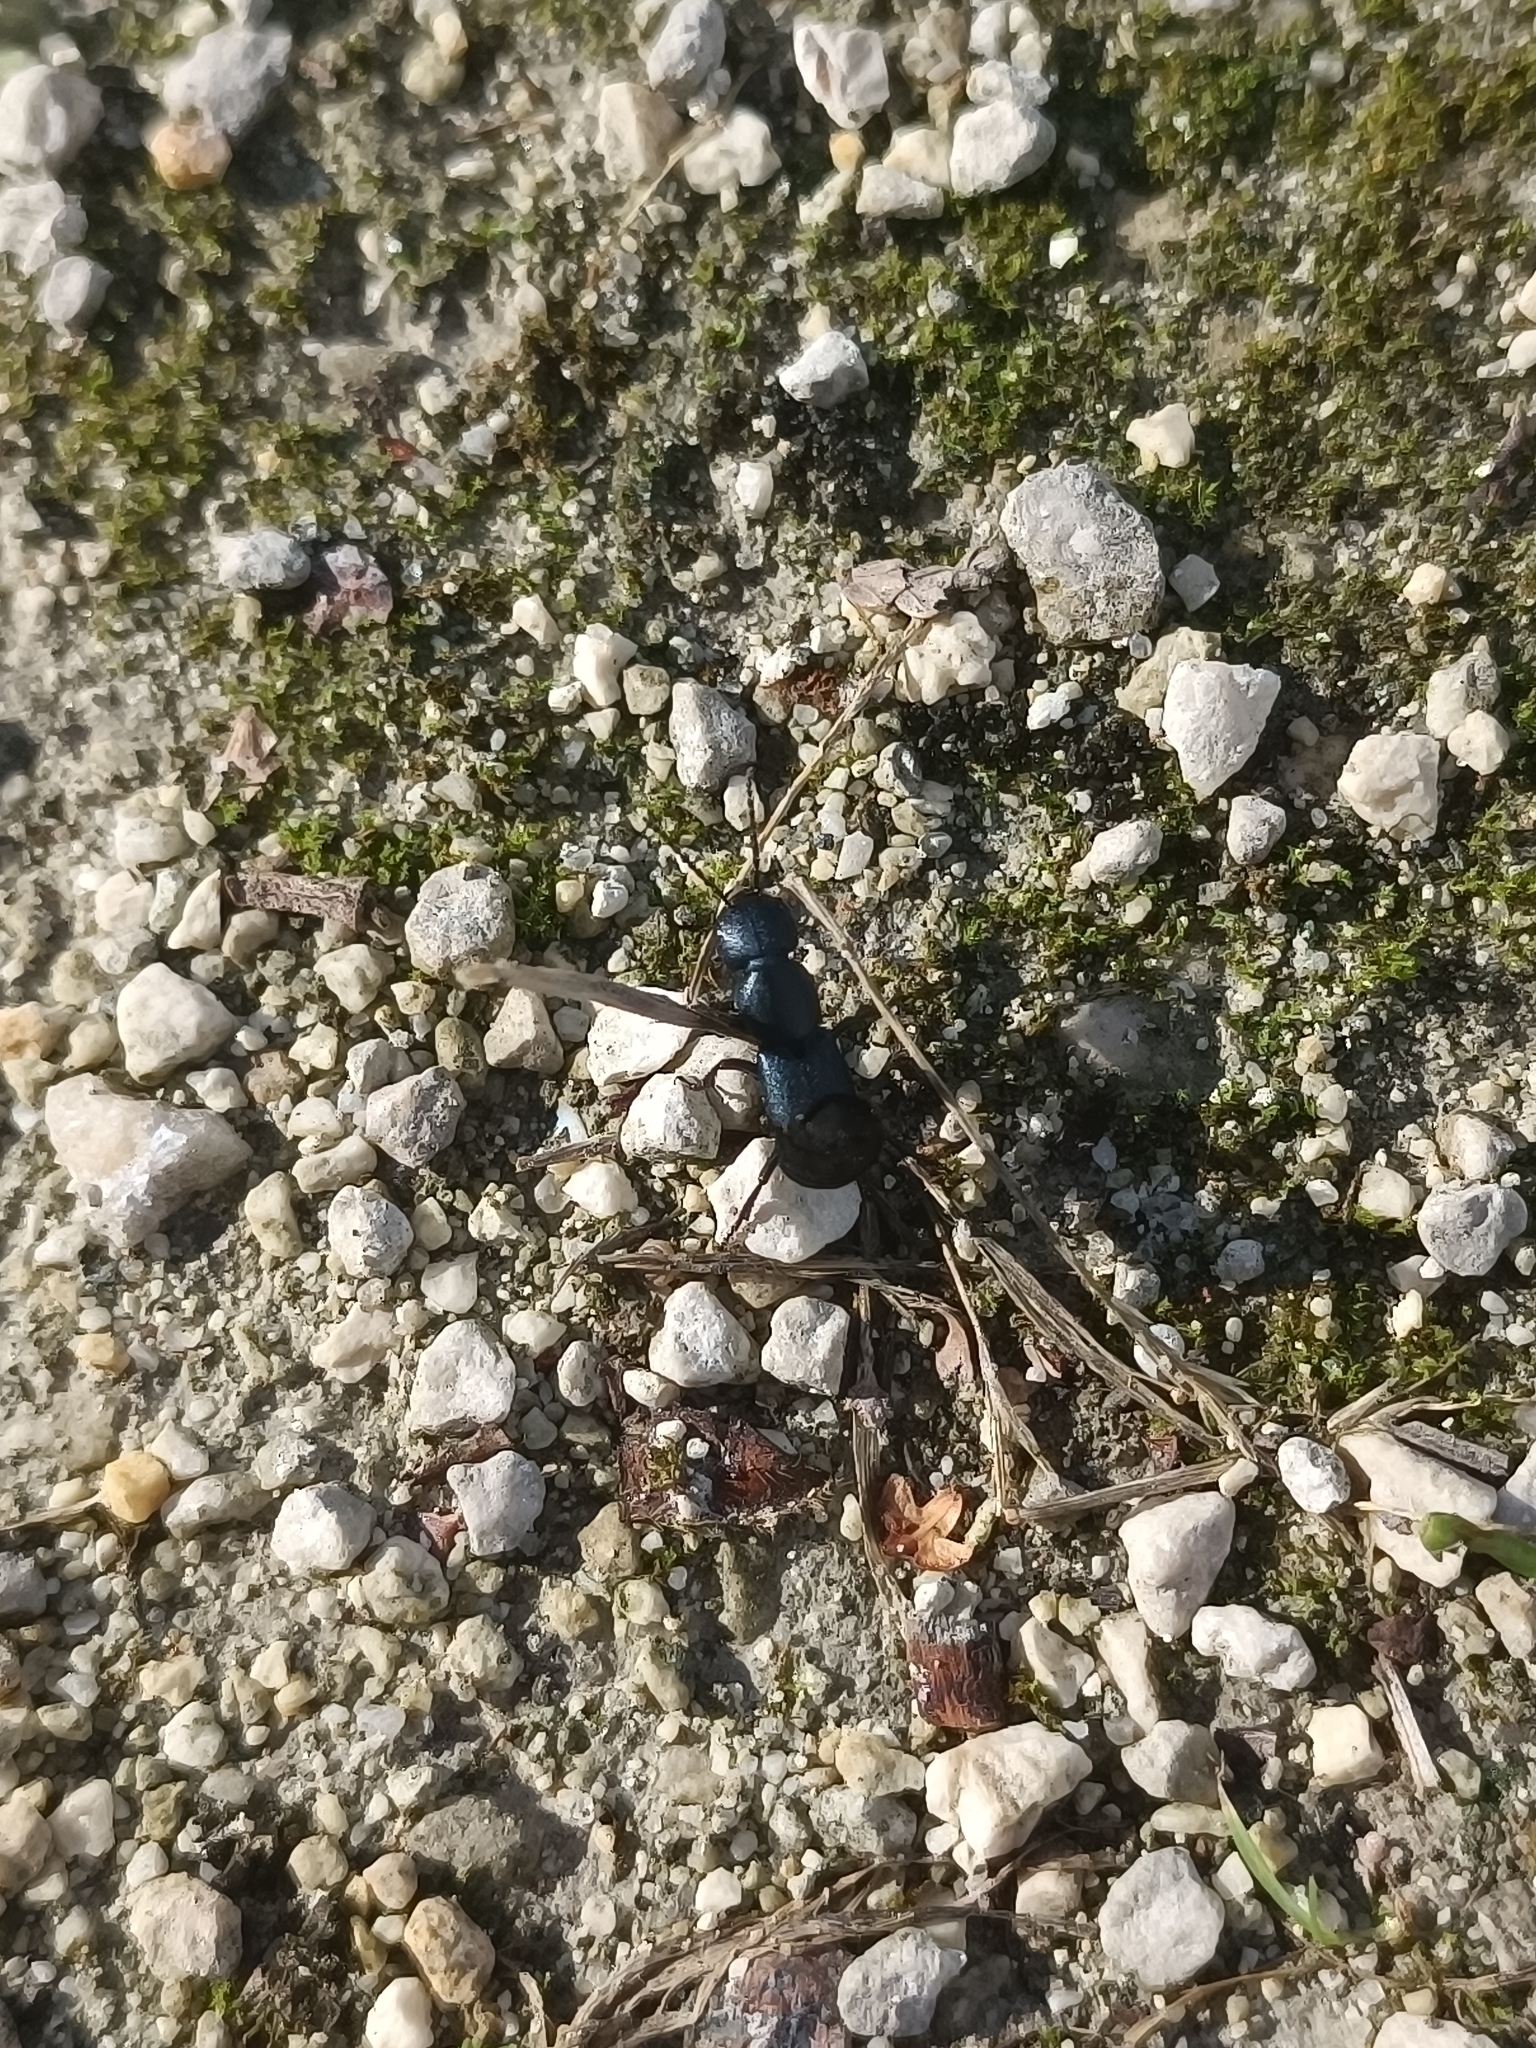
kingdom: Animalia
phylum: Arthropoda
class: Insecta
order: Coleoptera
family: Staphylinidae
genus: Ocypus
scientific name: Ocypus ophthalmicus
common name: Blue rove-beetle
